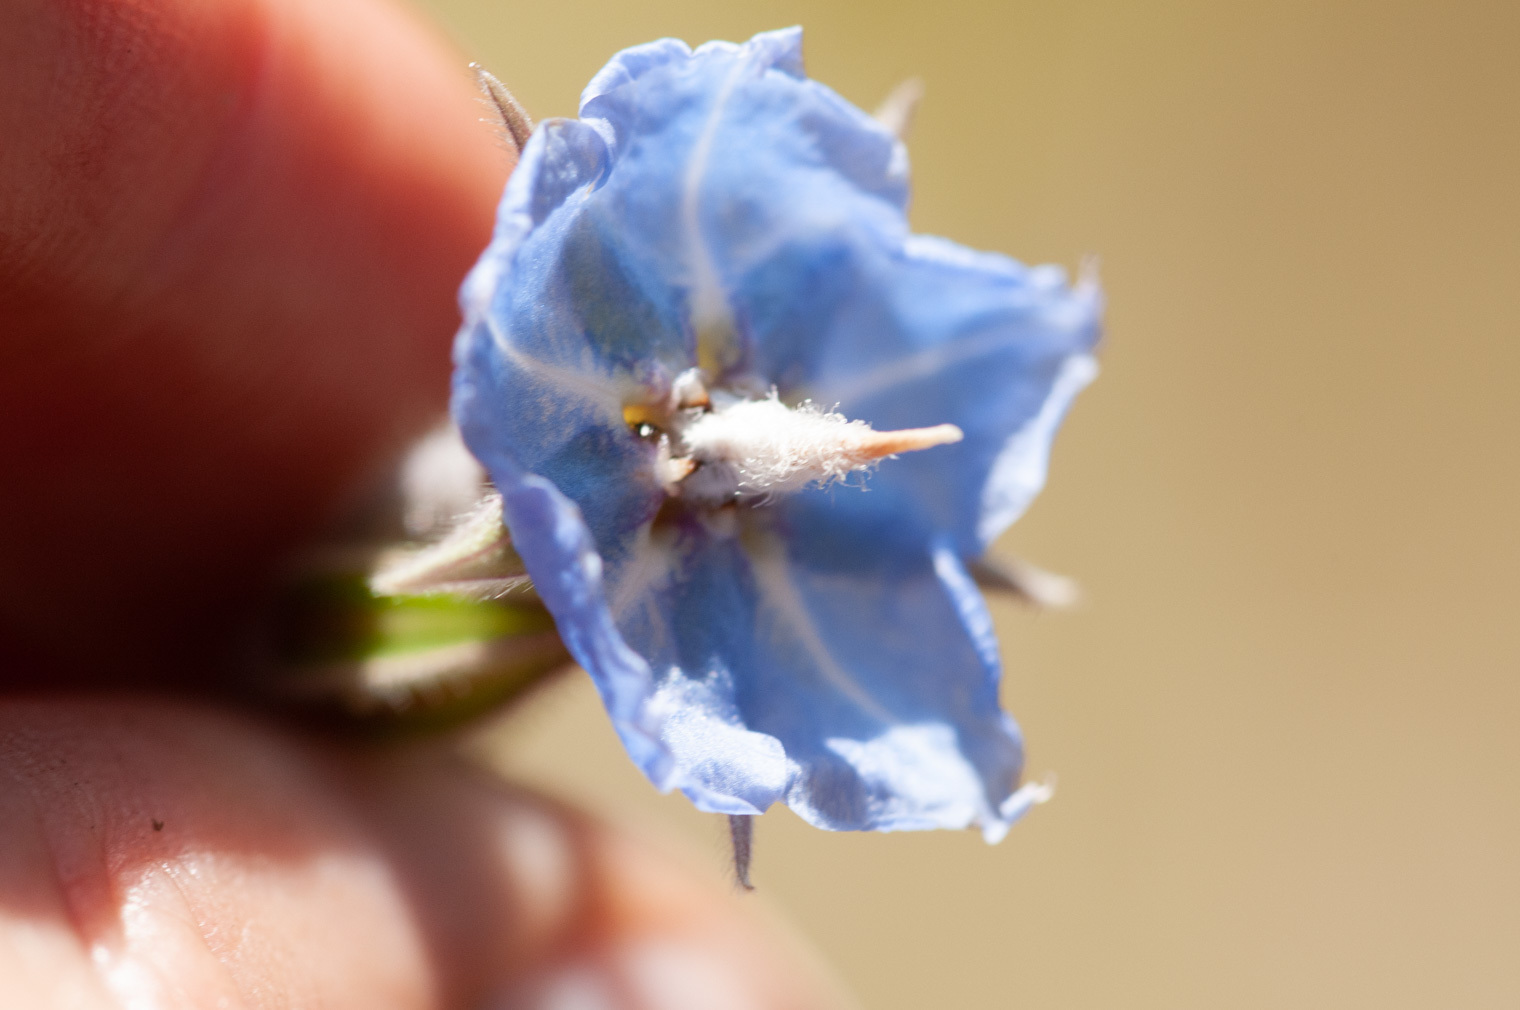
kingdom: Plantae
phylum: Tracheophyta
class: Magnoliopsida
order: Boraginales
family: Boraginaceae
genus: Trichodesma
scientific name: Trichodesma zeylanicum
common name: Camelbush
